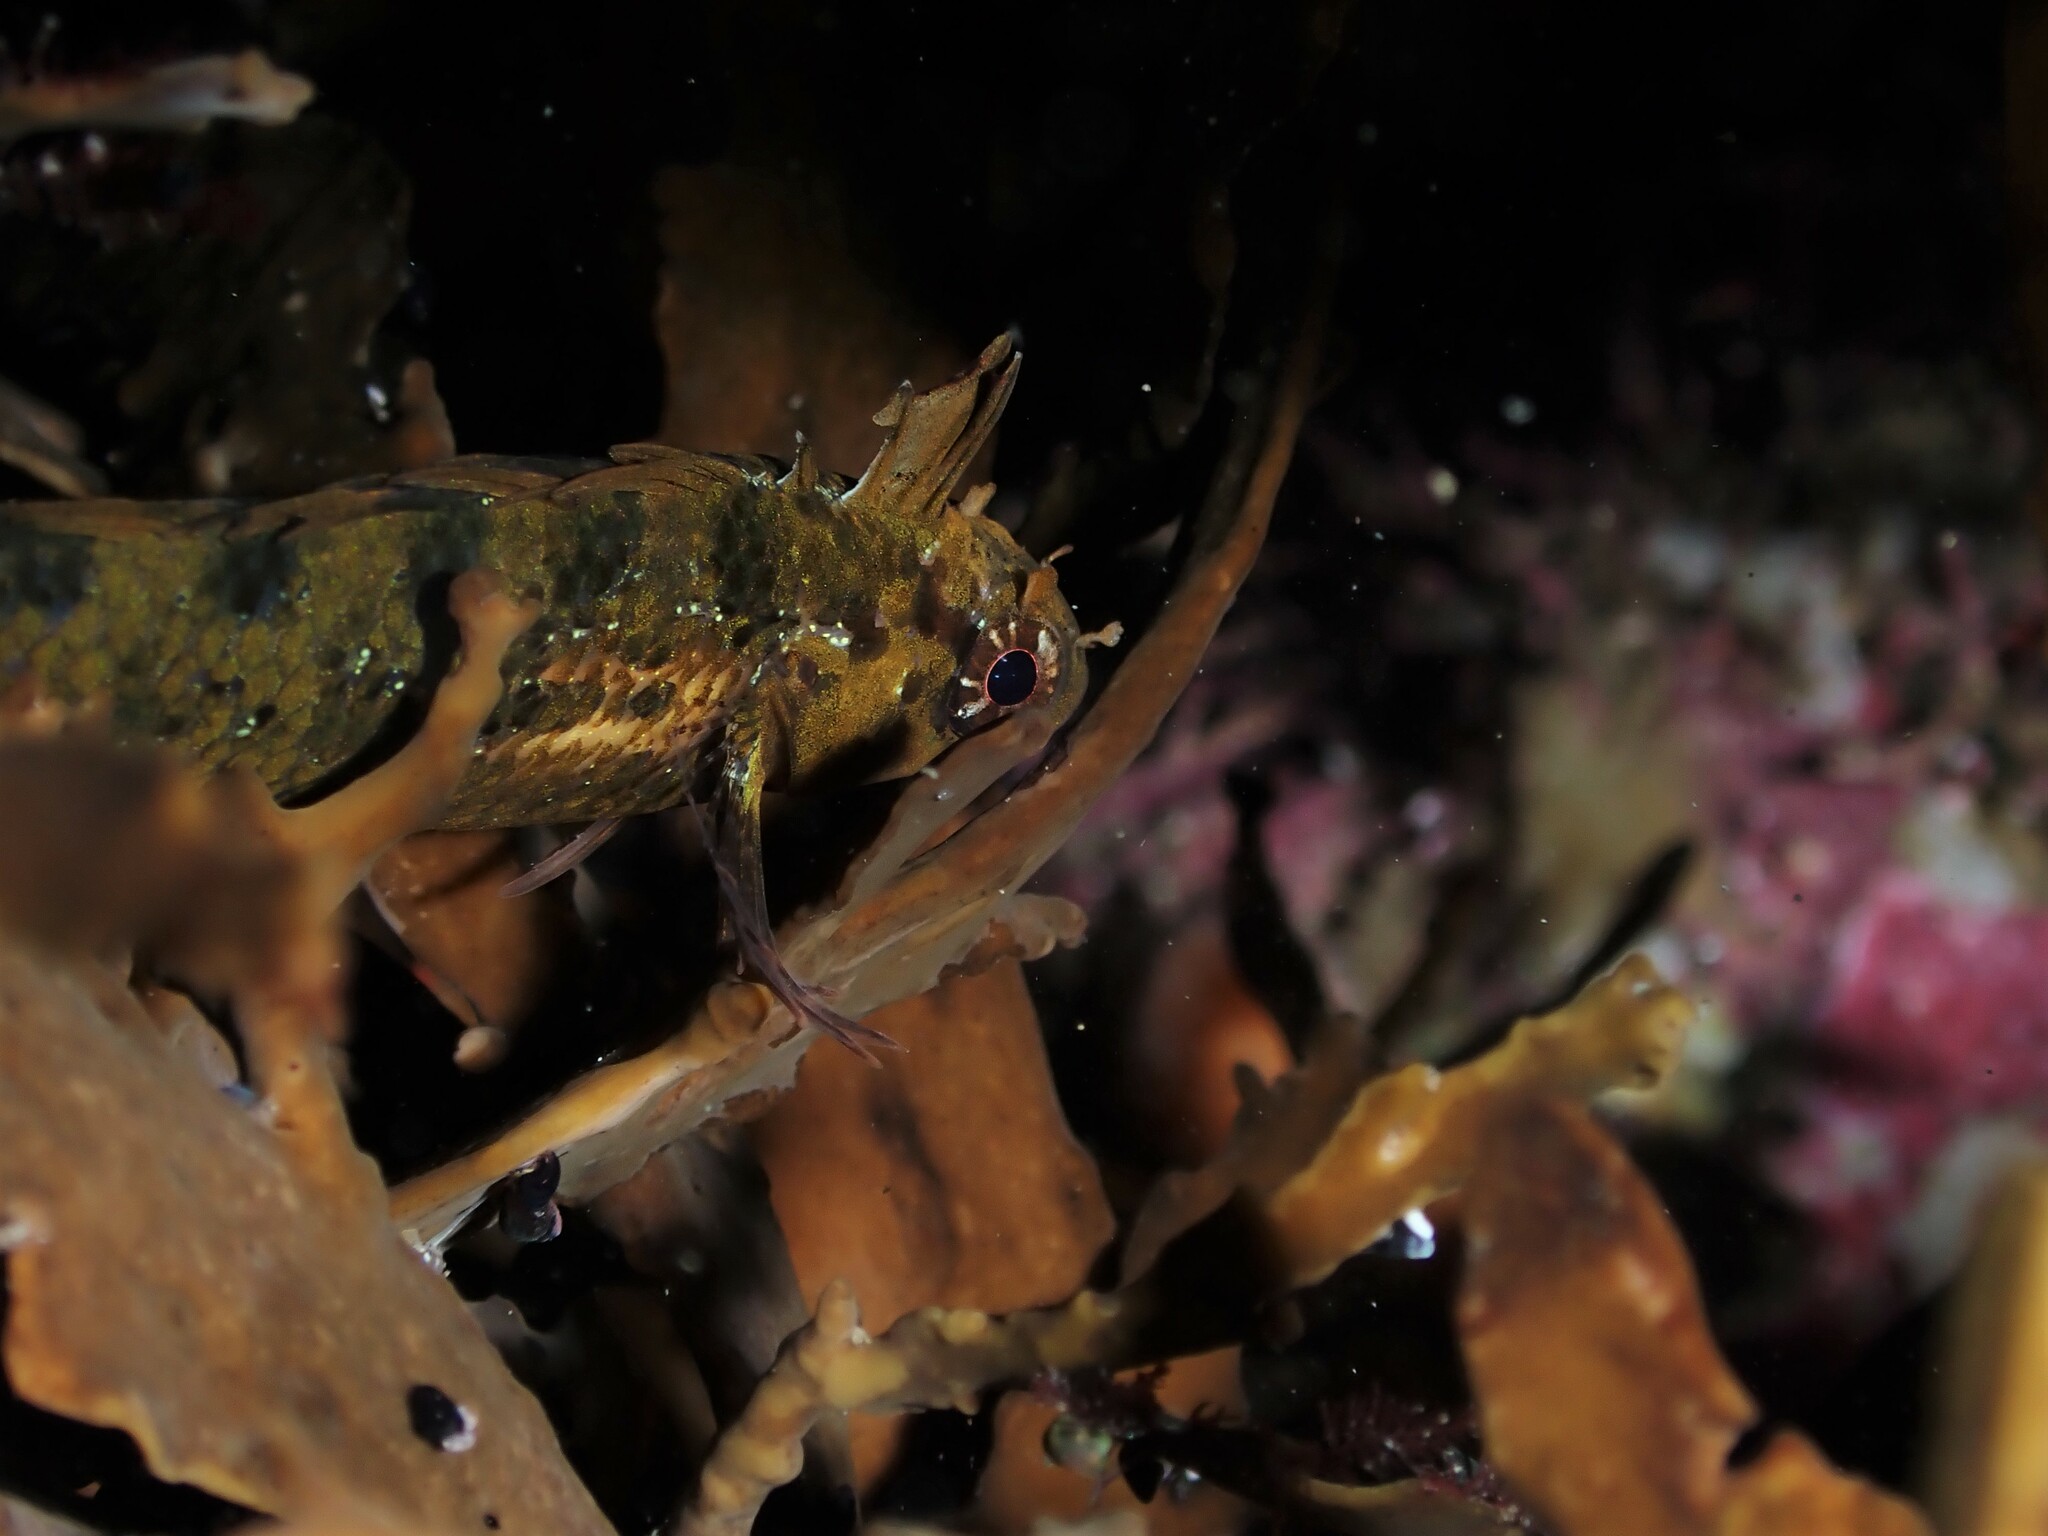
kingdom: Animalia
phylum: Chordata
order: Perciformes
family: Tripterygiidae
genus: Notoclinus
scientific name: Notoclinus compressus
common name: Brown topknot
